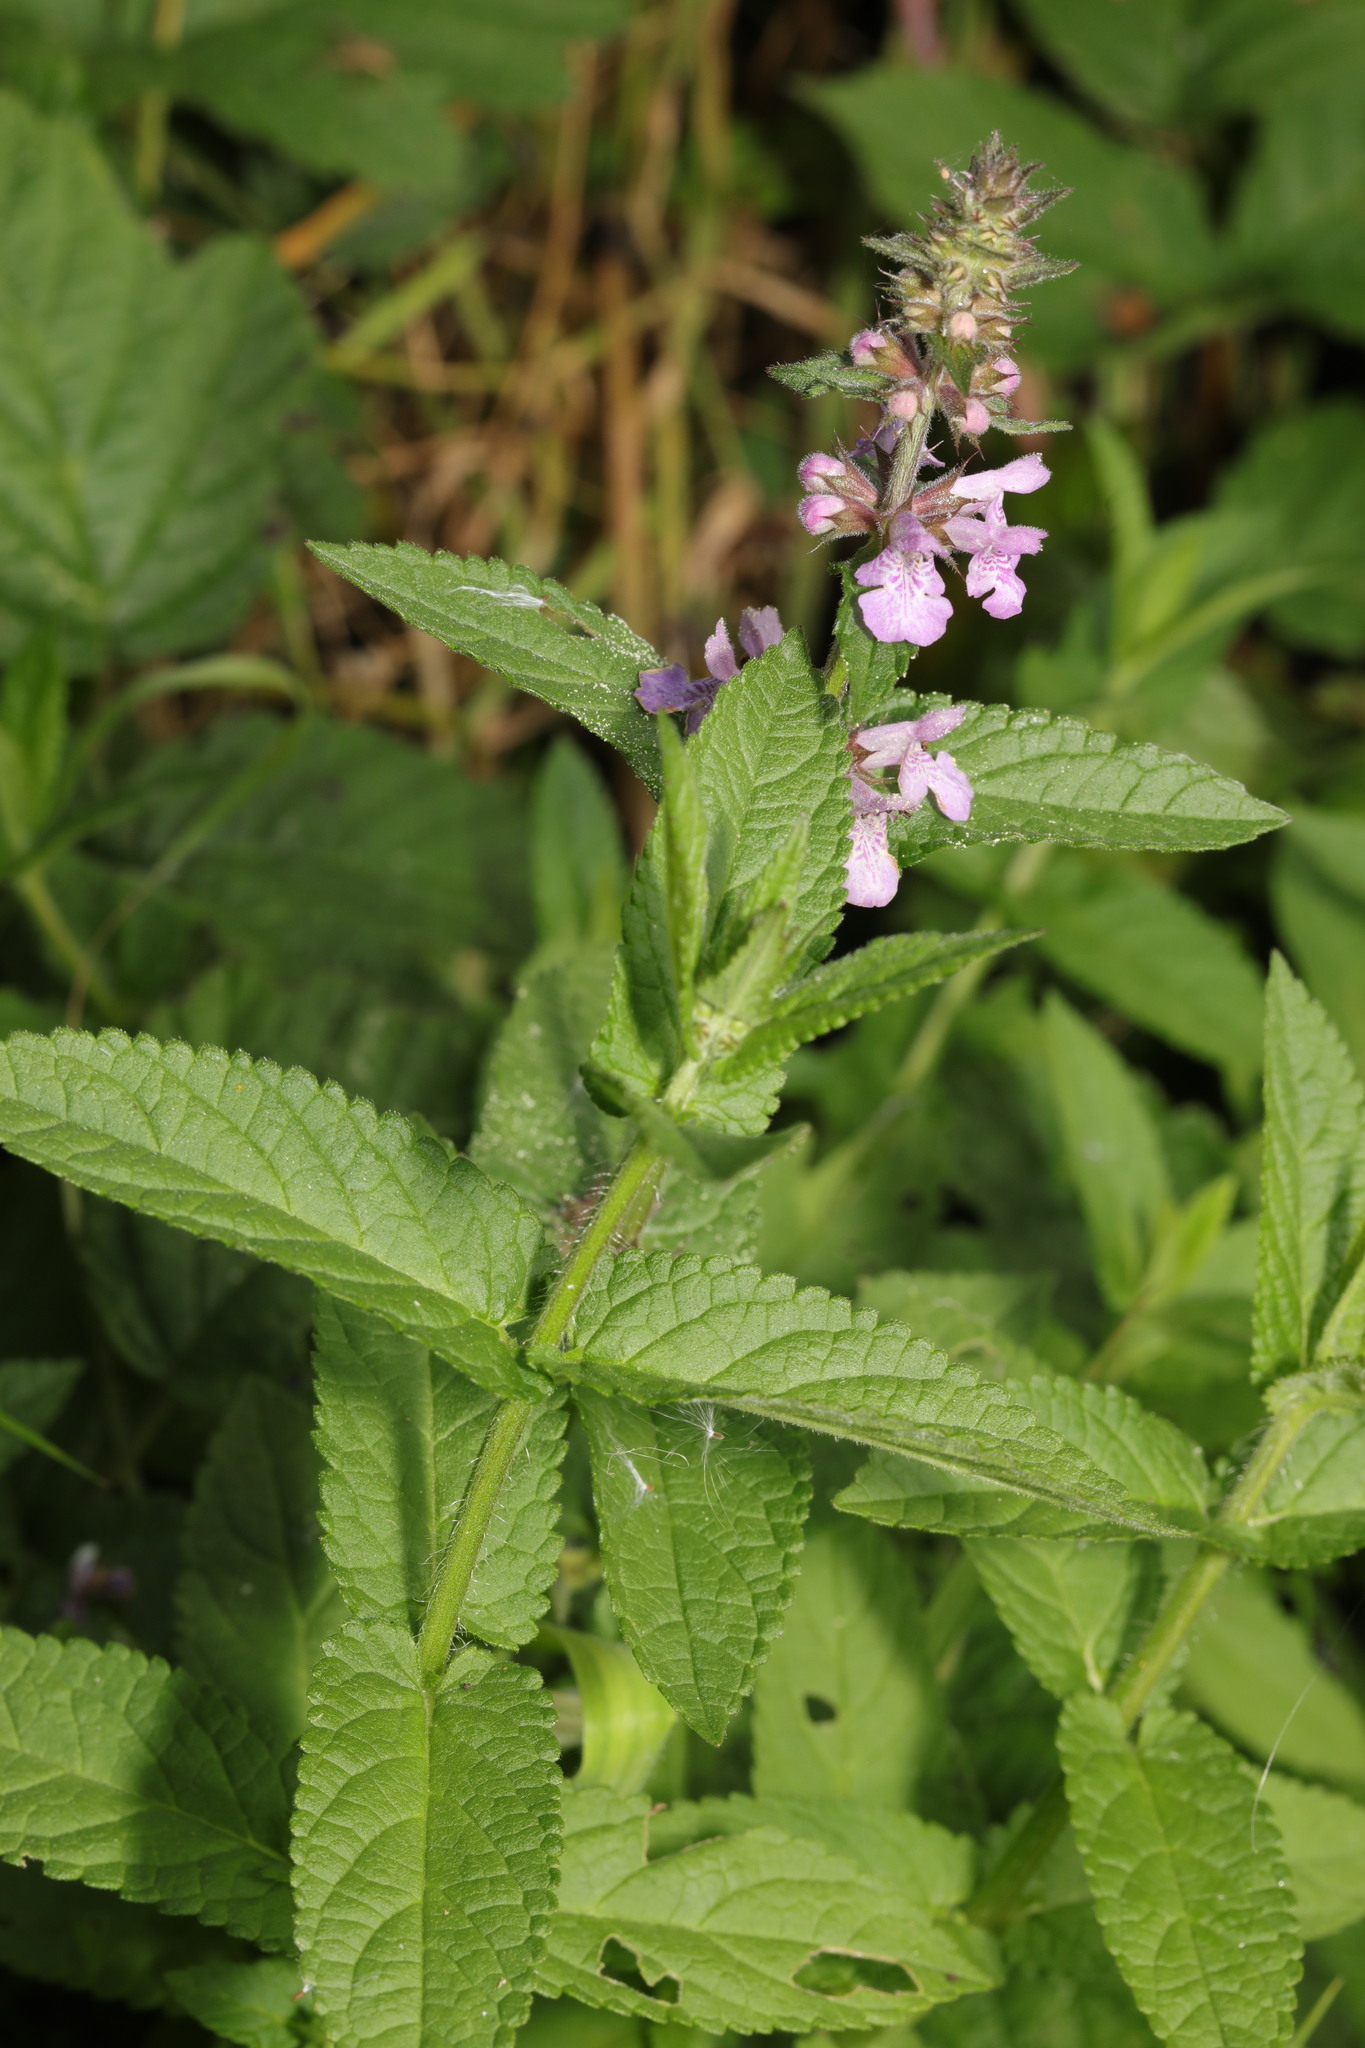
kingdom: Plantae
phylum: Tracheophyta
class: Magnoliopsida
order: Lamiales
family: Lamiaceae
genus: Stachys
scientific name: Stachys palustris
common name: Marsh woundwort
